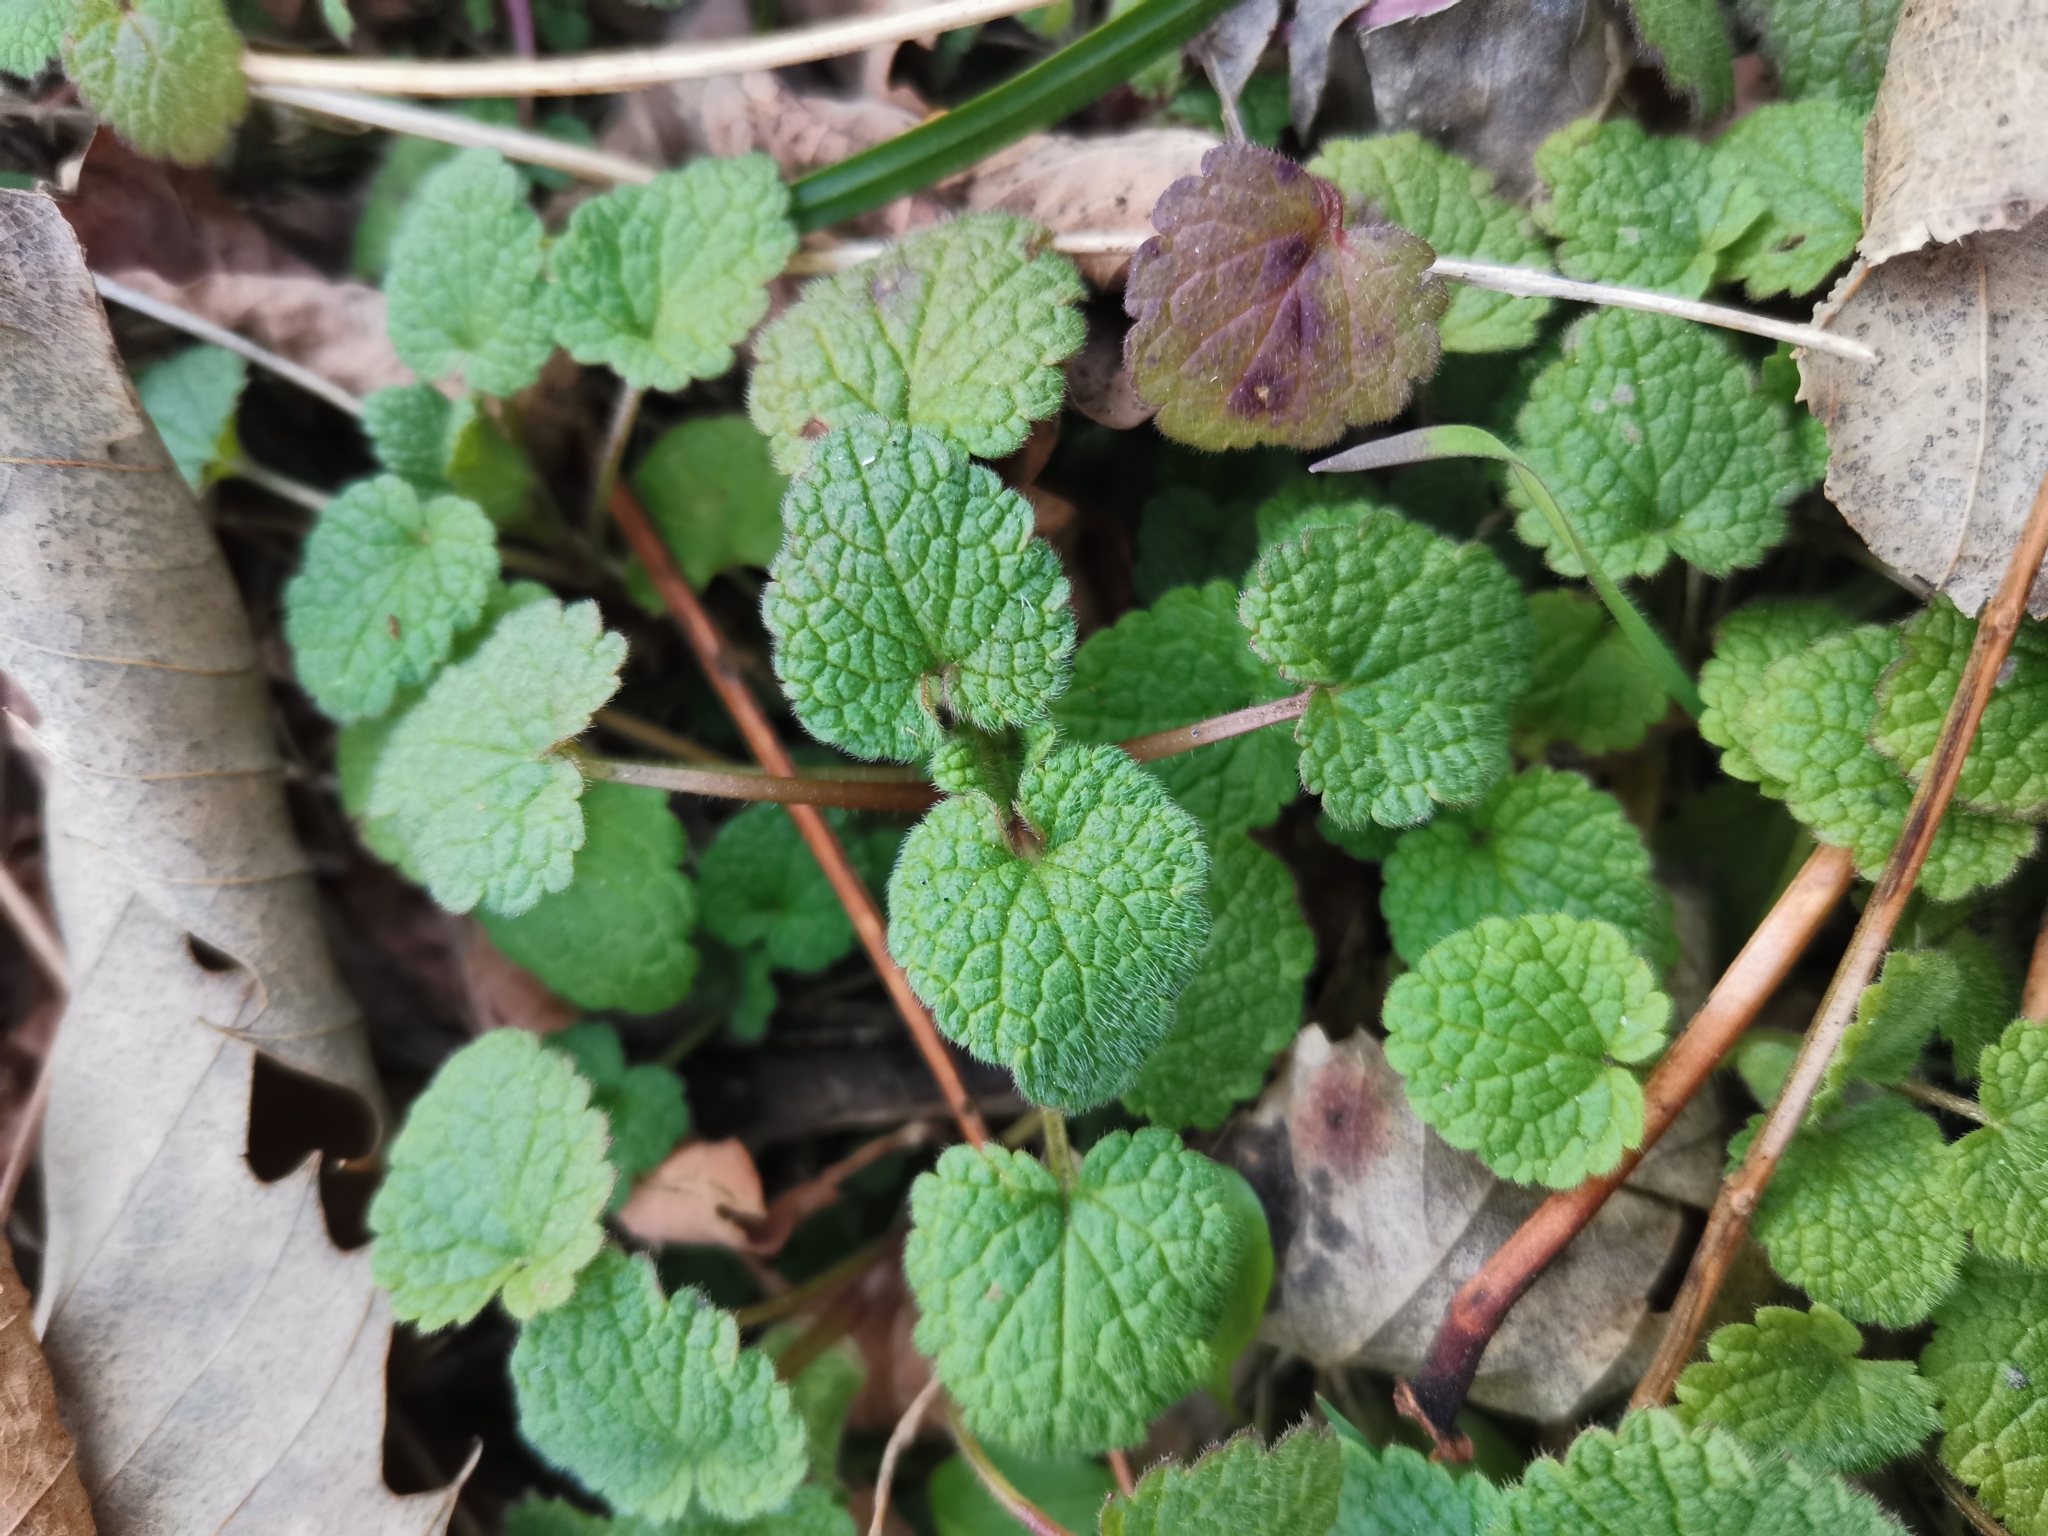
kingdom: Plantae
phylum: Tracheophyta
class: Magnoliopsida
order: Lamiales
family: Lamiaceae
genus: Lamium
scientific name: Lamium purpureum
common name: Red dead-nettle
